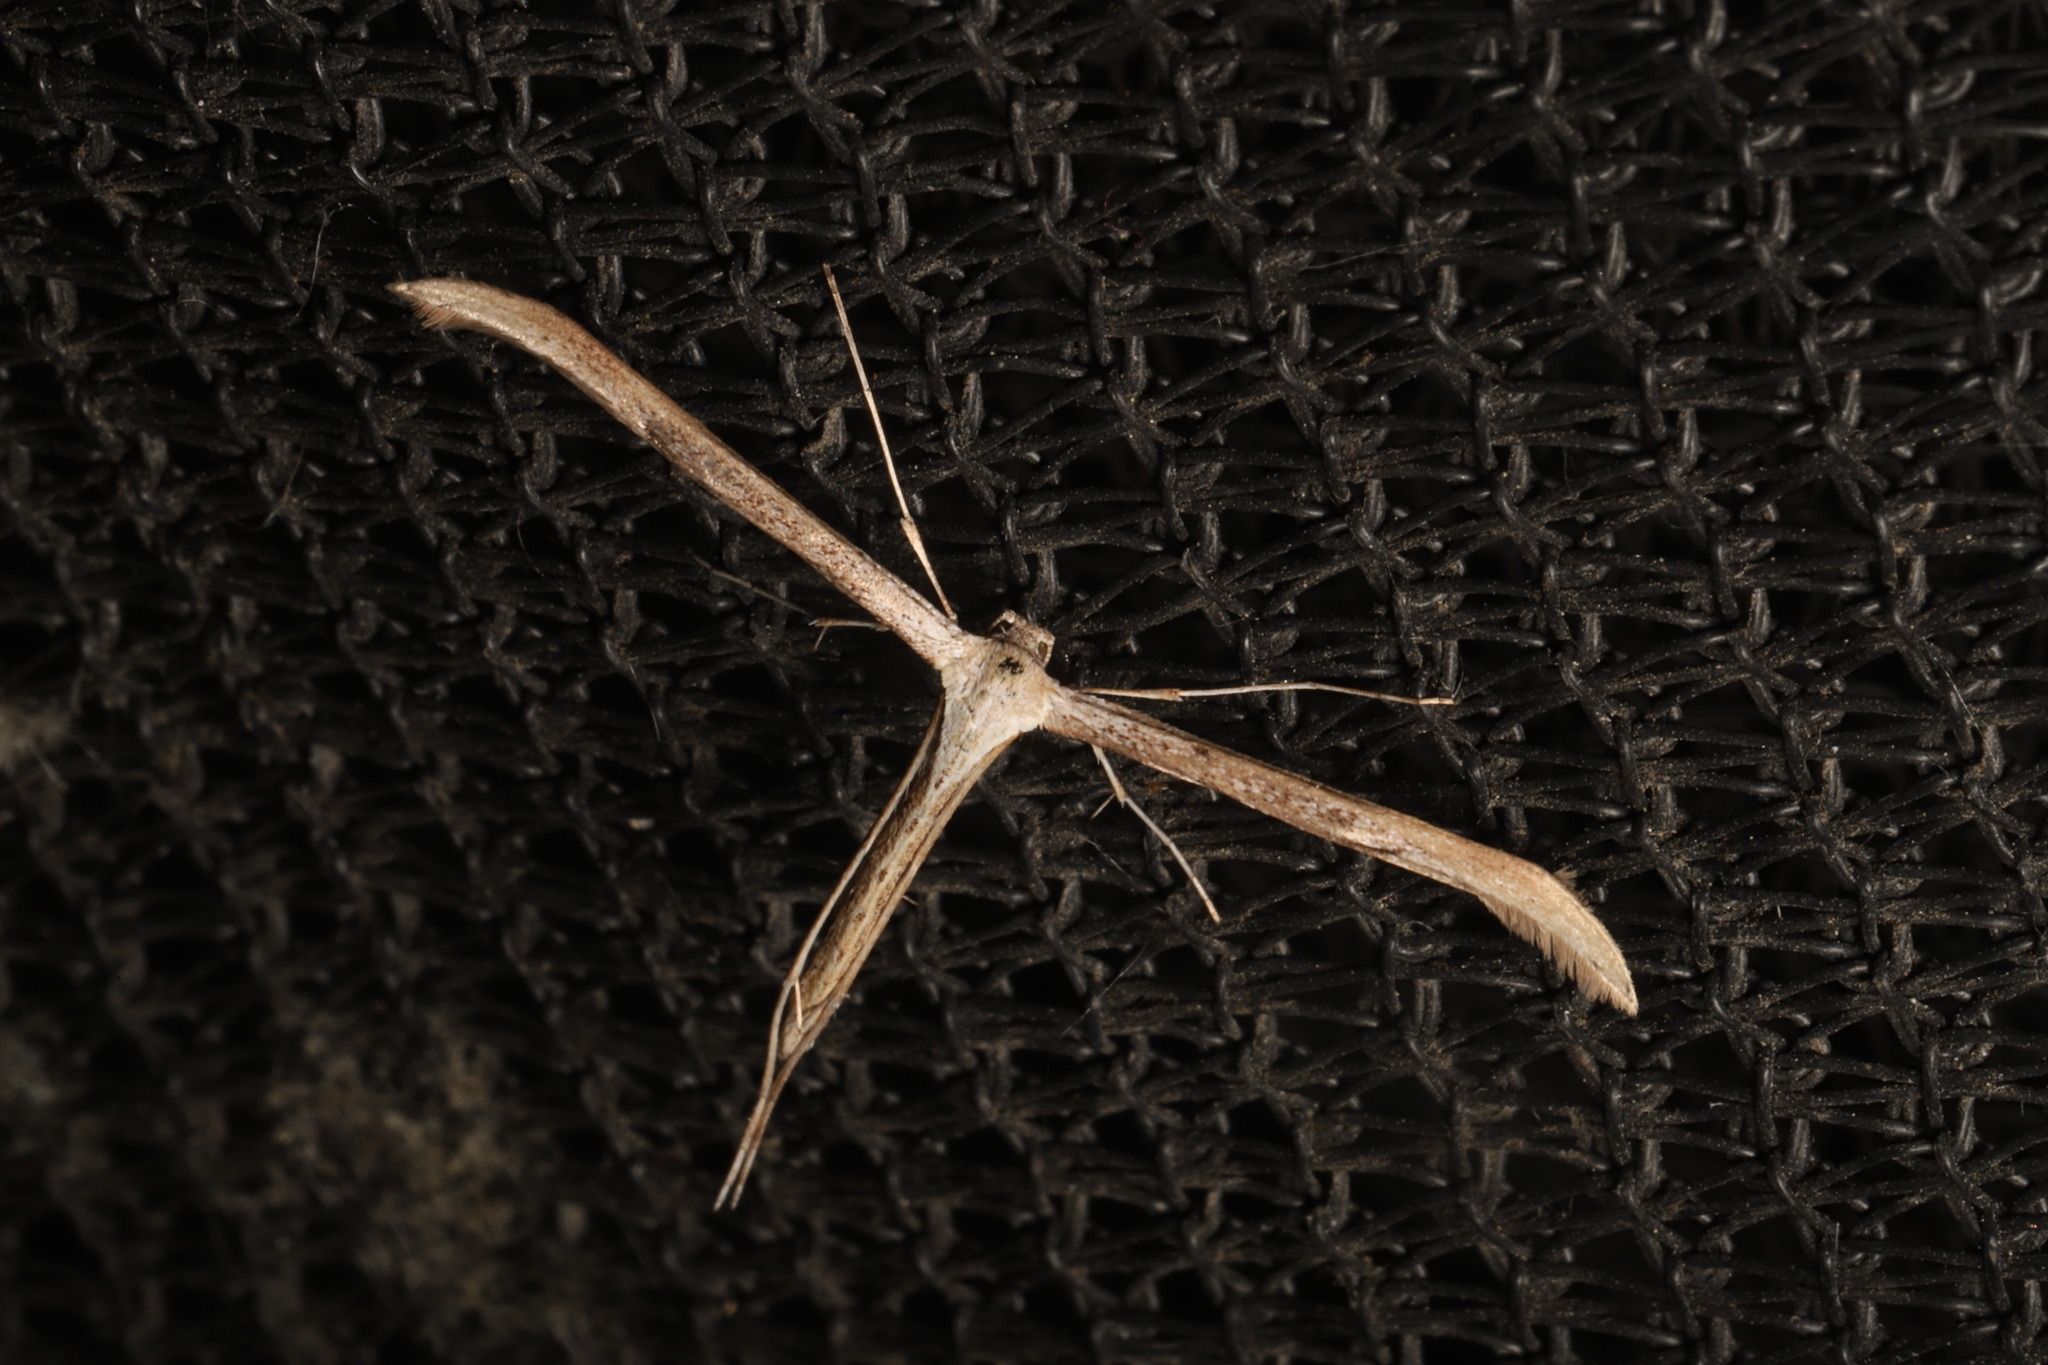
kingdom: Animalia
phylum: Arthropoda
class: Insecta
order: Lepidoptera
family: Pterophoridae
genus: Emmelina
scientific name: Emmelina monodactyla
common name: Common plume
